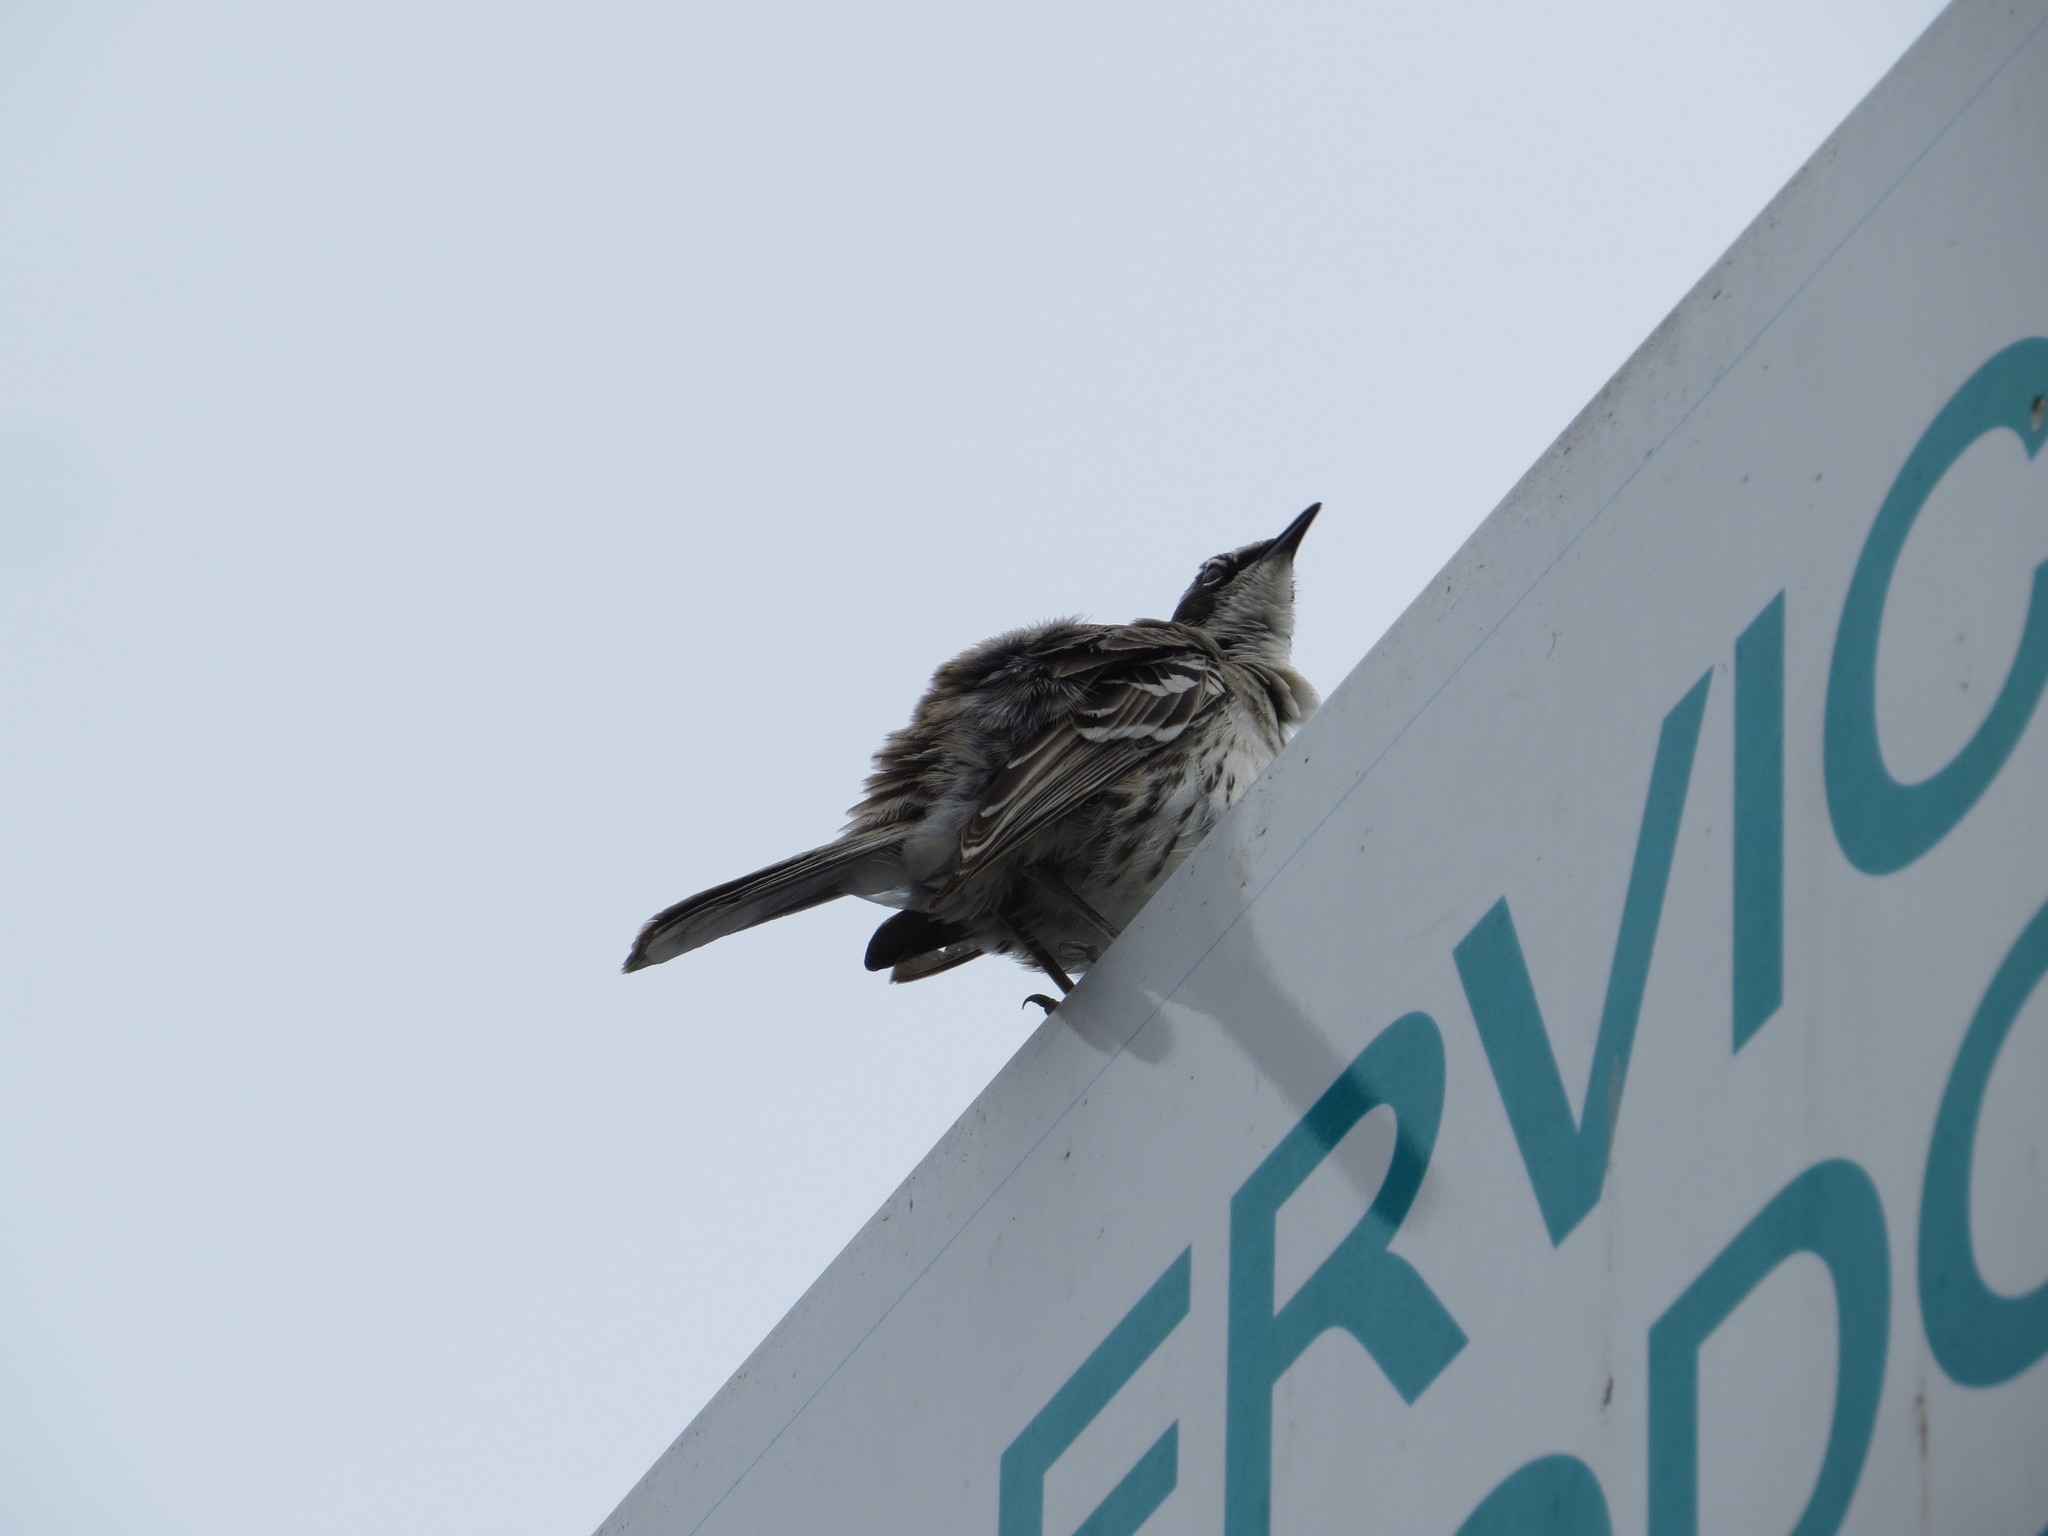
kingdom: Animalia
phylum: Chordata
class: Aves
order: Passeriformes
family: Mimidae
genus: Mimus
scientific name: Mimus parvulus
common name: Galapagos mockingbird
